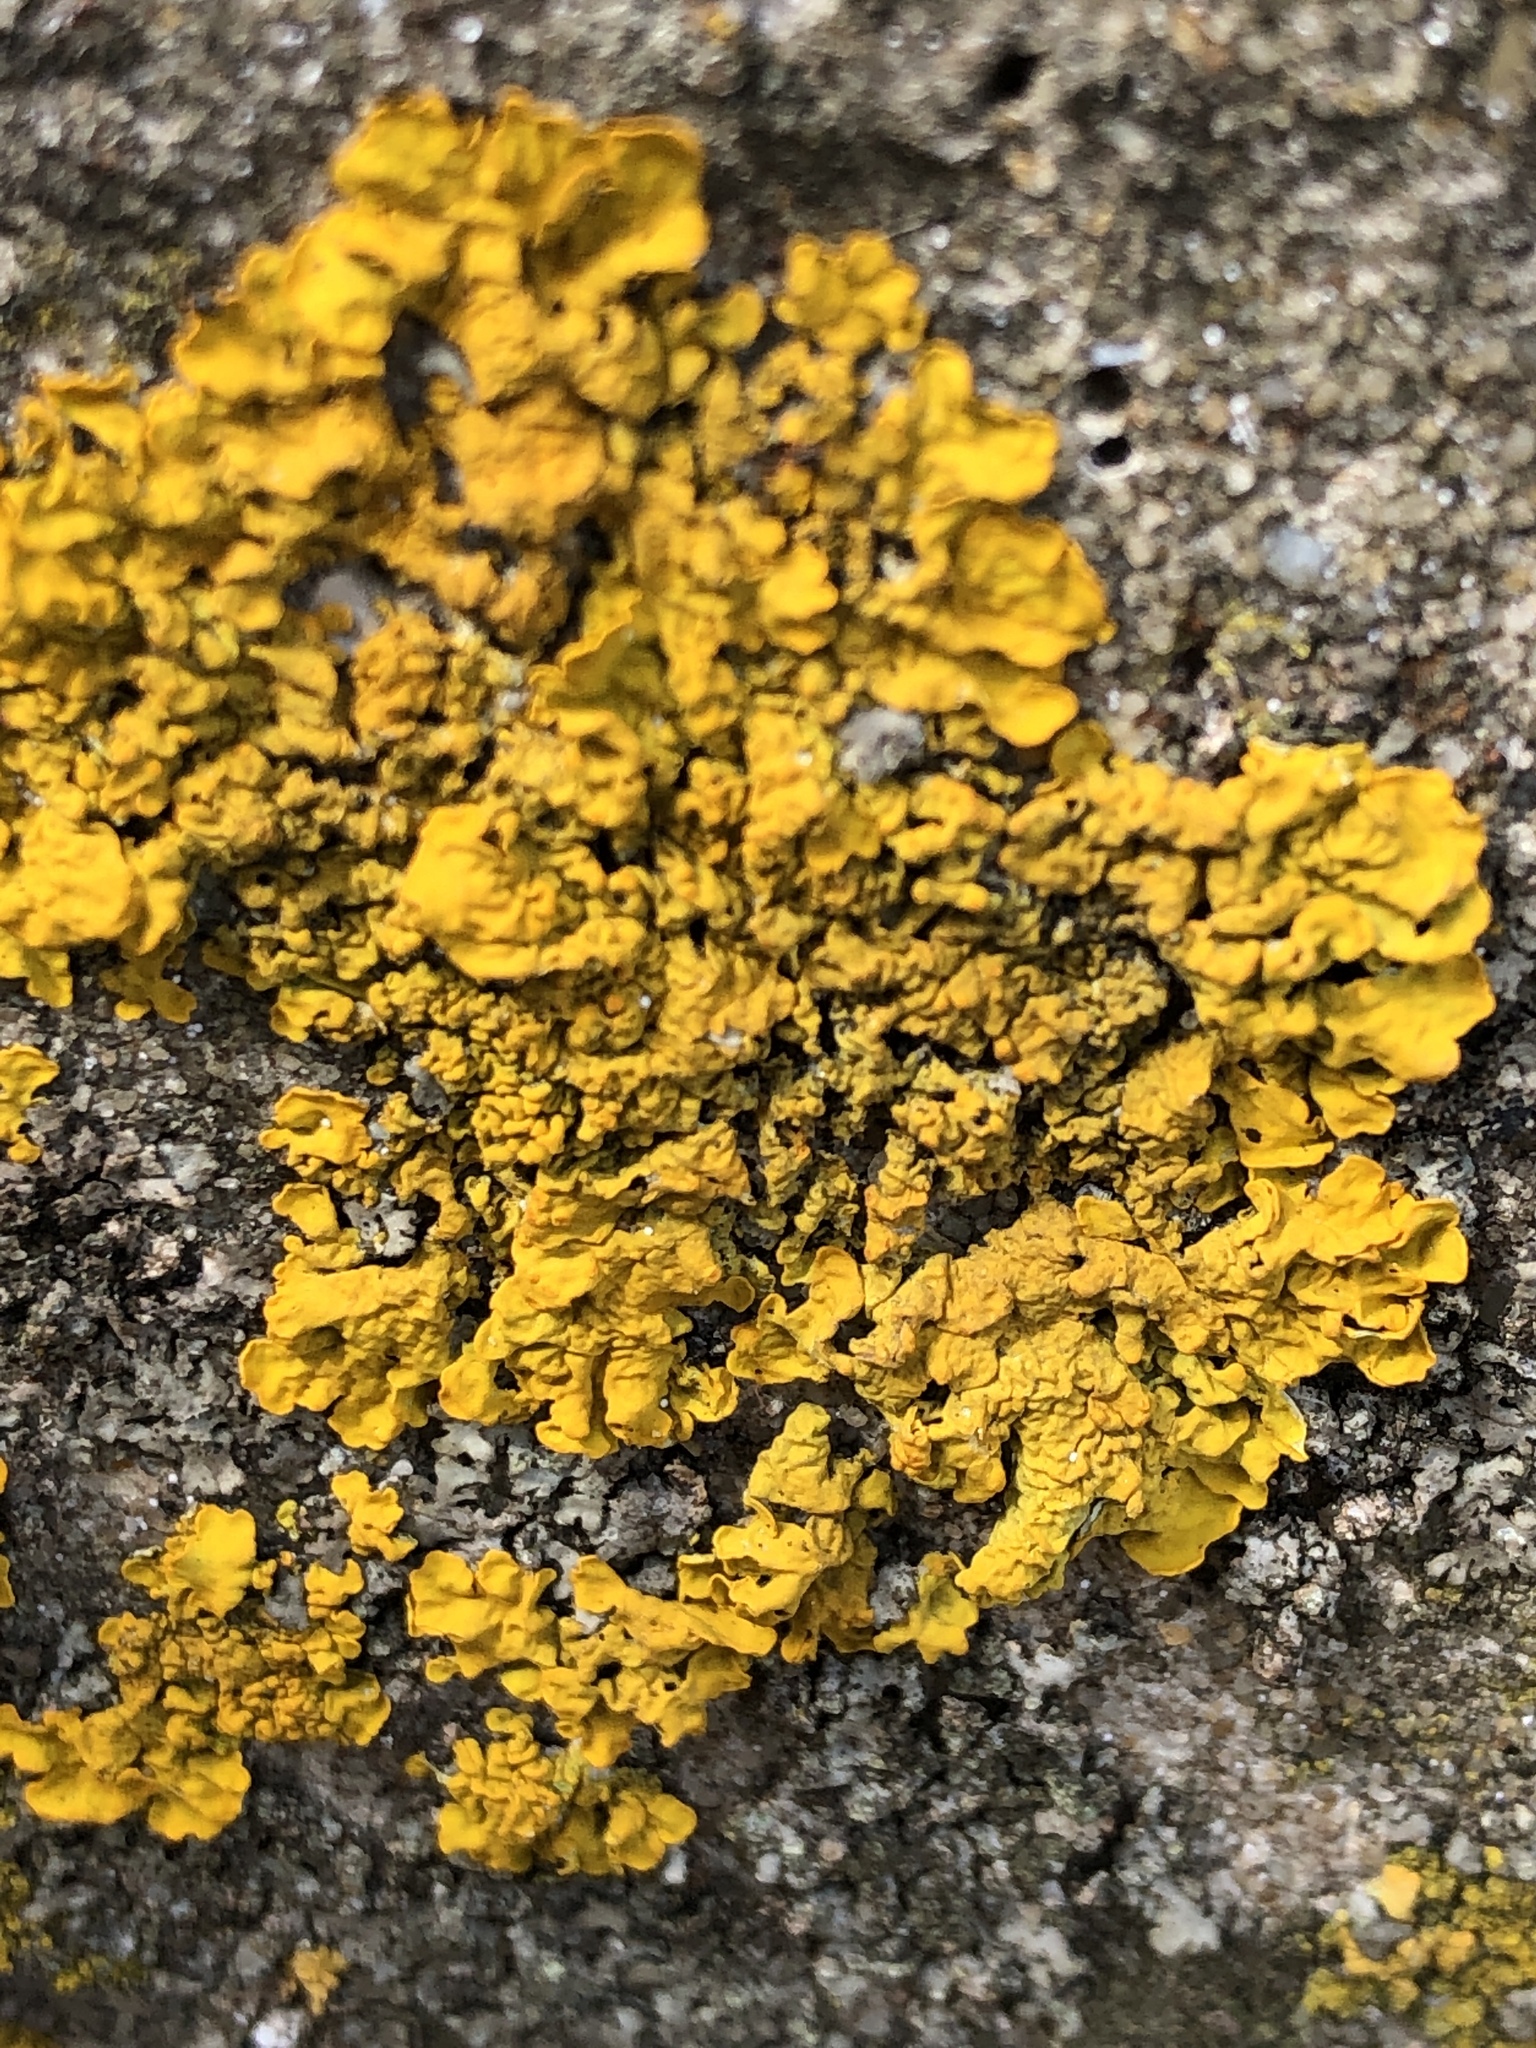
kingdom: Fungi
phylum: Ascomycota
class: Lecanoromycetes
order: Teloschistales
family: Teloschistaceae
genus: Xanthoria
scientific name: Xanthoria parietina
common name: Common orange lichen
